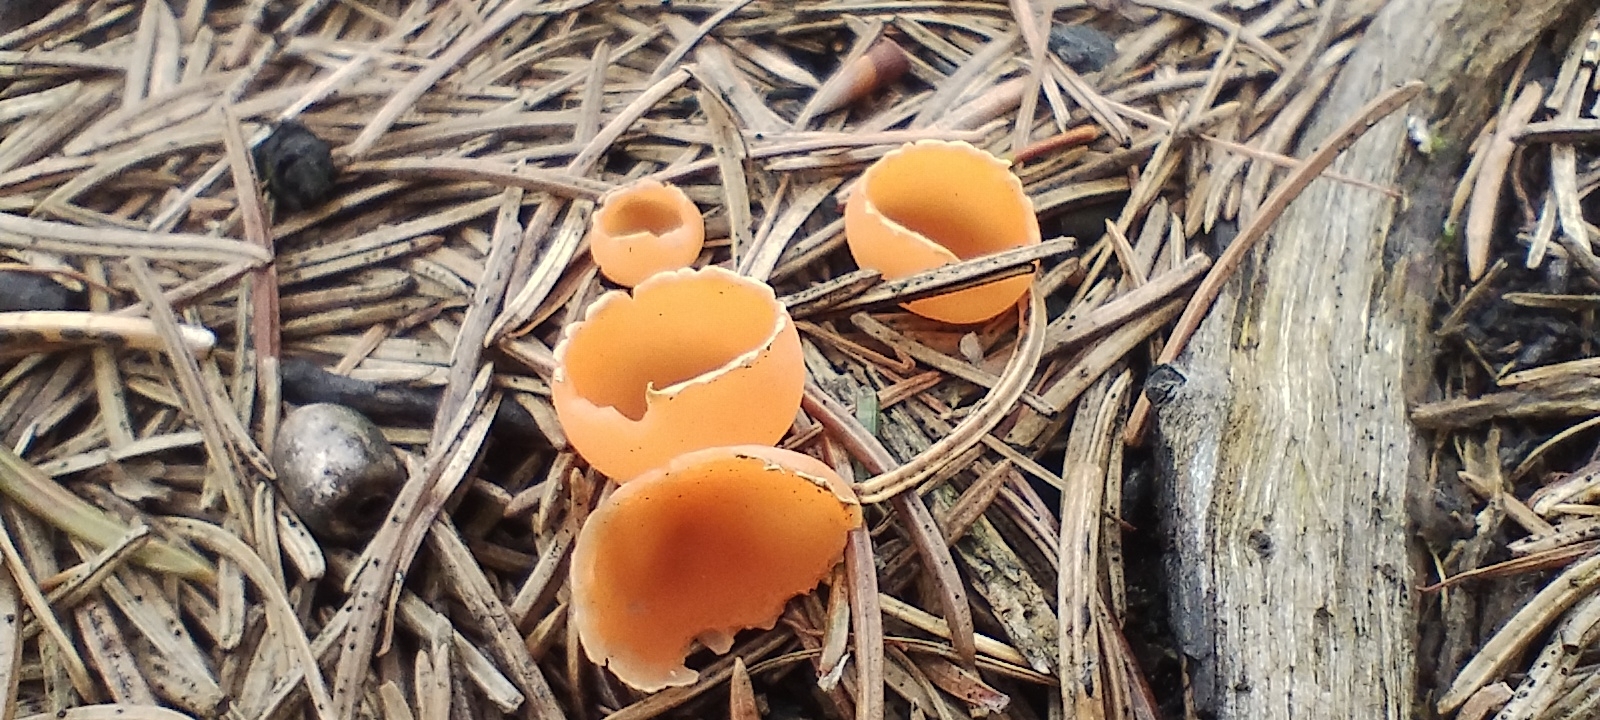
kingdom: Fungi
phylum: Ascomycota
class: Pezizomycetes
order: Pezizales
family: Pyronemataceae
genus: Geopyxis
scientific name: Geopyxis carbonaria
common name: Stalked bonfire cup
